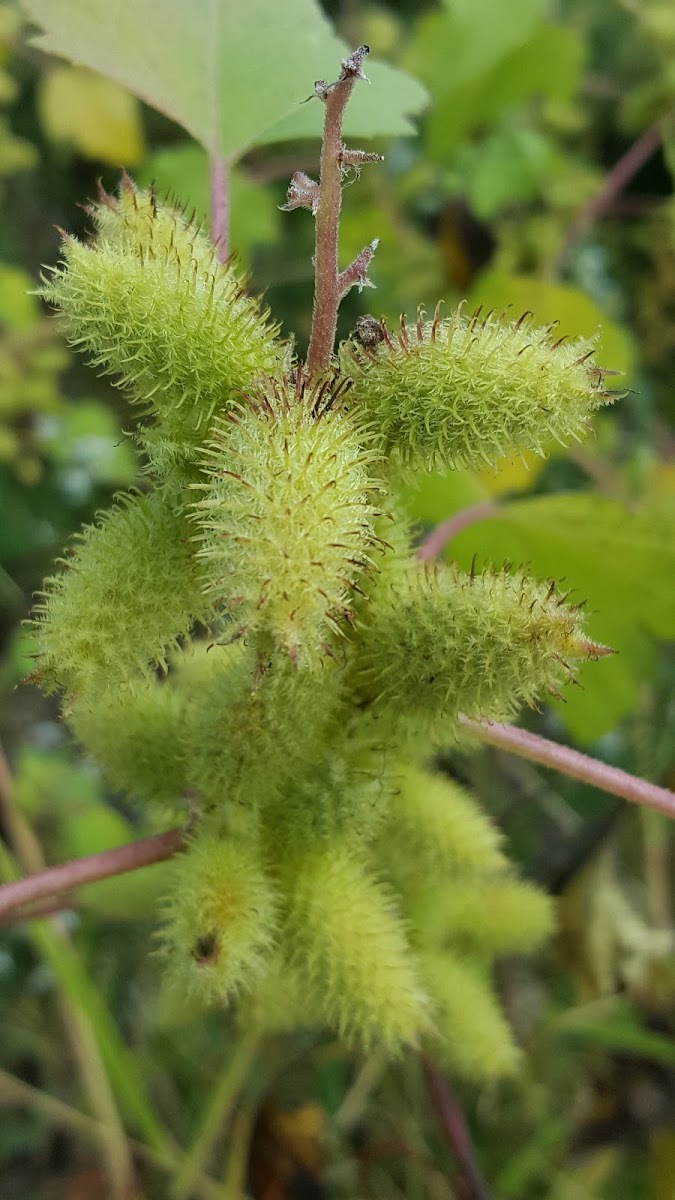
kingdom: Plantae
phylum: Tracheophyta
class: Magnoliopsida
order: Asterales
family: Asteraceae
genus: Xanthium
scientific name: Xanthium strumarium
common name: Rough cocklebur
